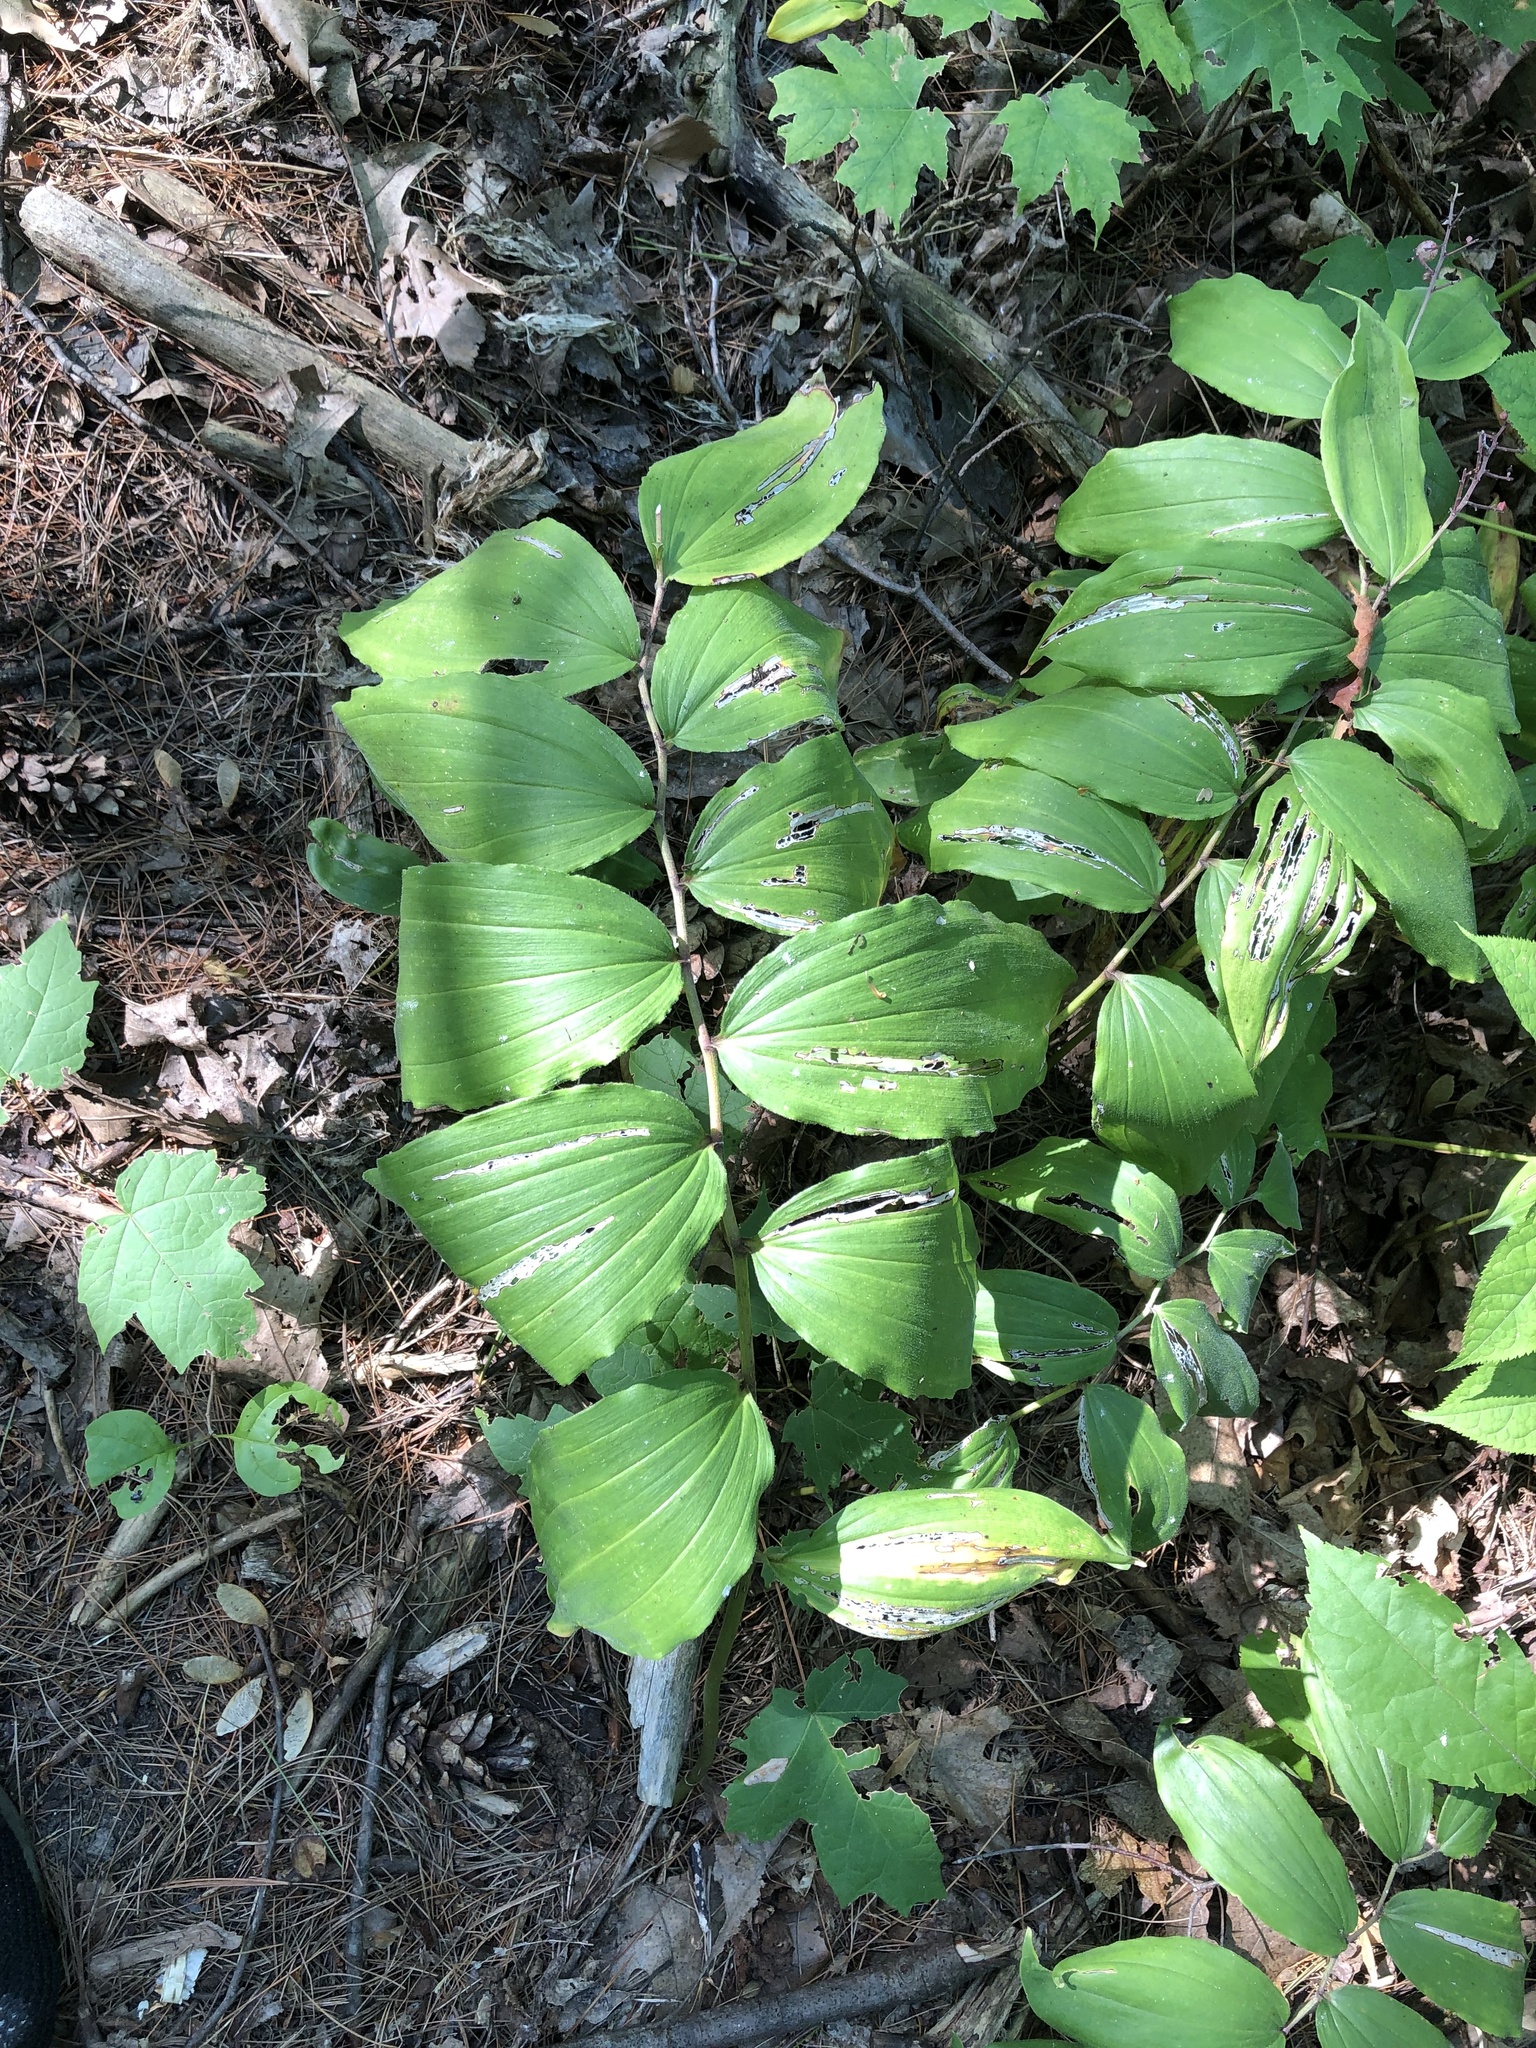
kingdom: Plantae
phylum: Tracheophyta
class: Liliopsida
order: Asparagales
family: Asparagaceae
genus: Maianthemum
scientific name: Maianthemum racemosum
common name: False spikenard
